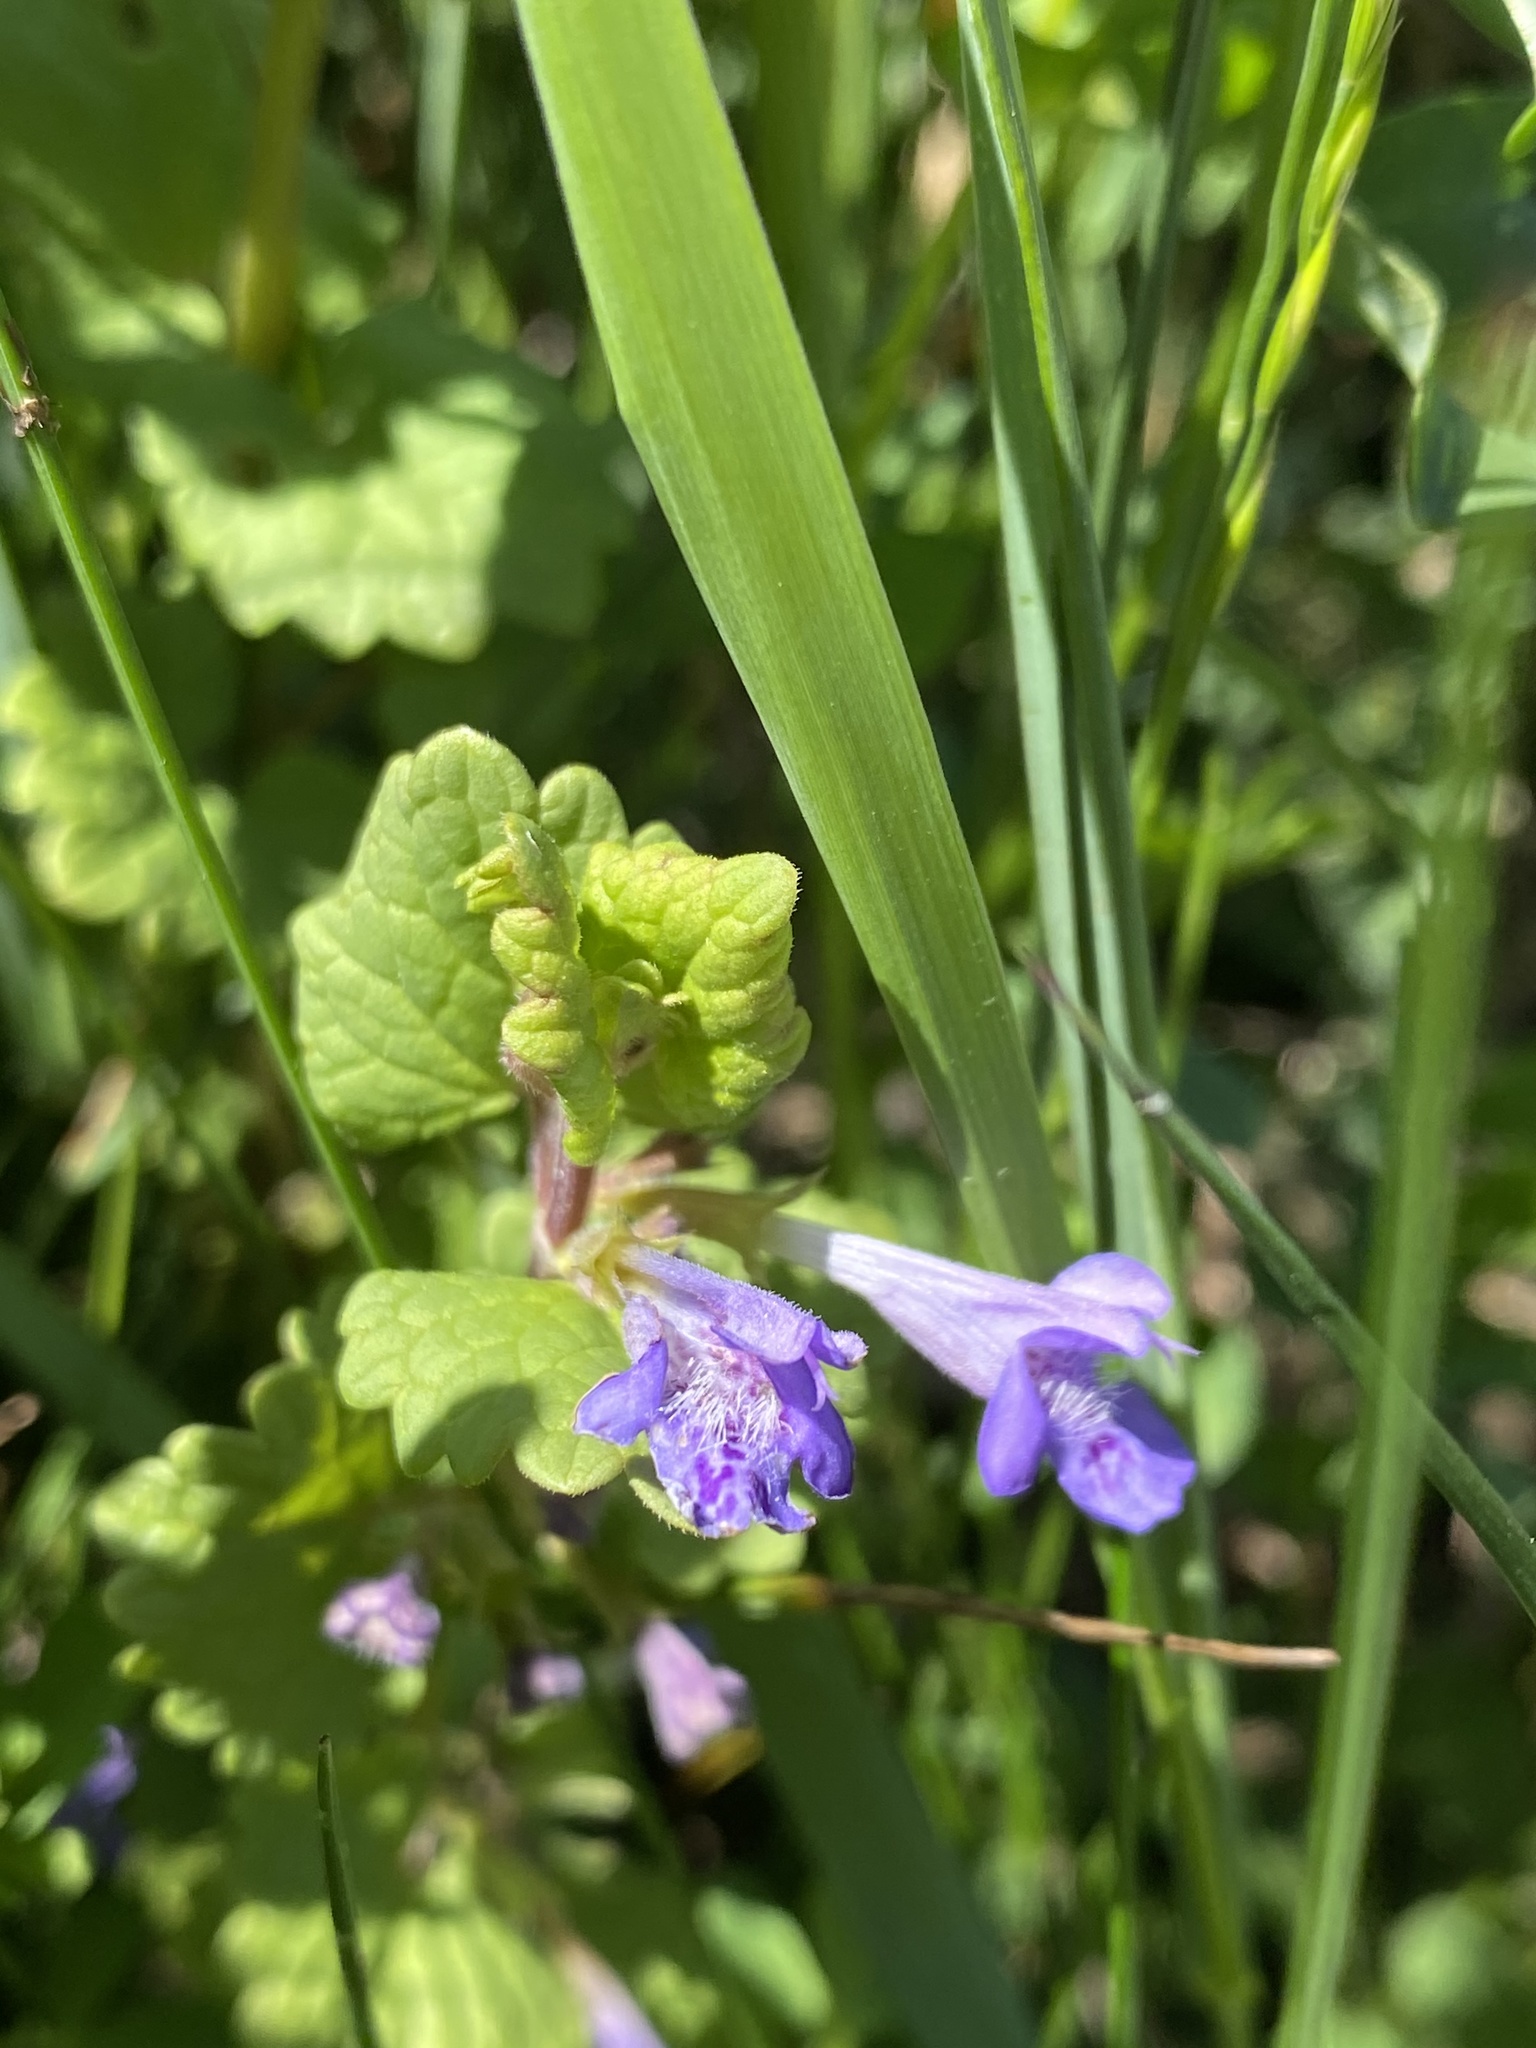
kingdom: Plantae
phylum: Tracheophyta
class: Magnoliopsida
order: Lamiales
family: Lamiaceae
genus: Glechoma
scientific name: Glechoma hederacea
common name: Ground ivy
